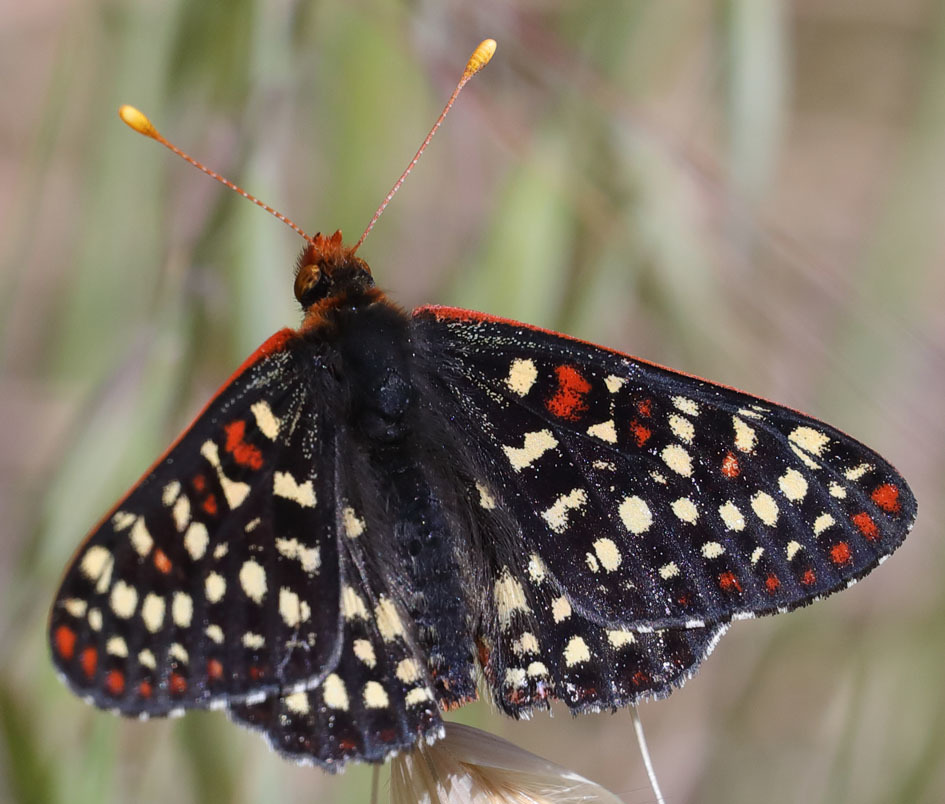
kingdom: Animalia
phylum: Arthropoda
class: Insecta
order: Lepidoptera
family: Nymphalidae
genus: Occidryas
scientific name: Occidryas chalcedona
